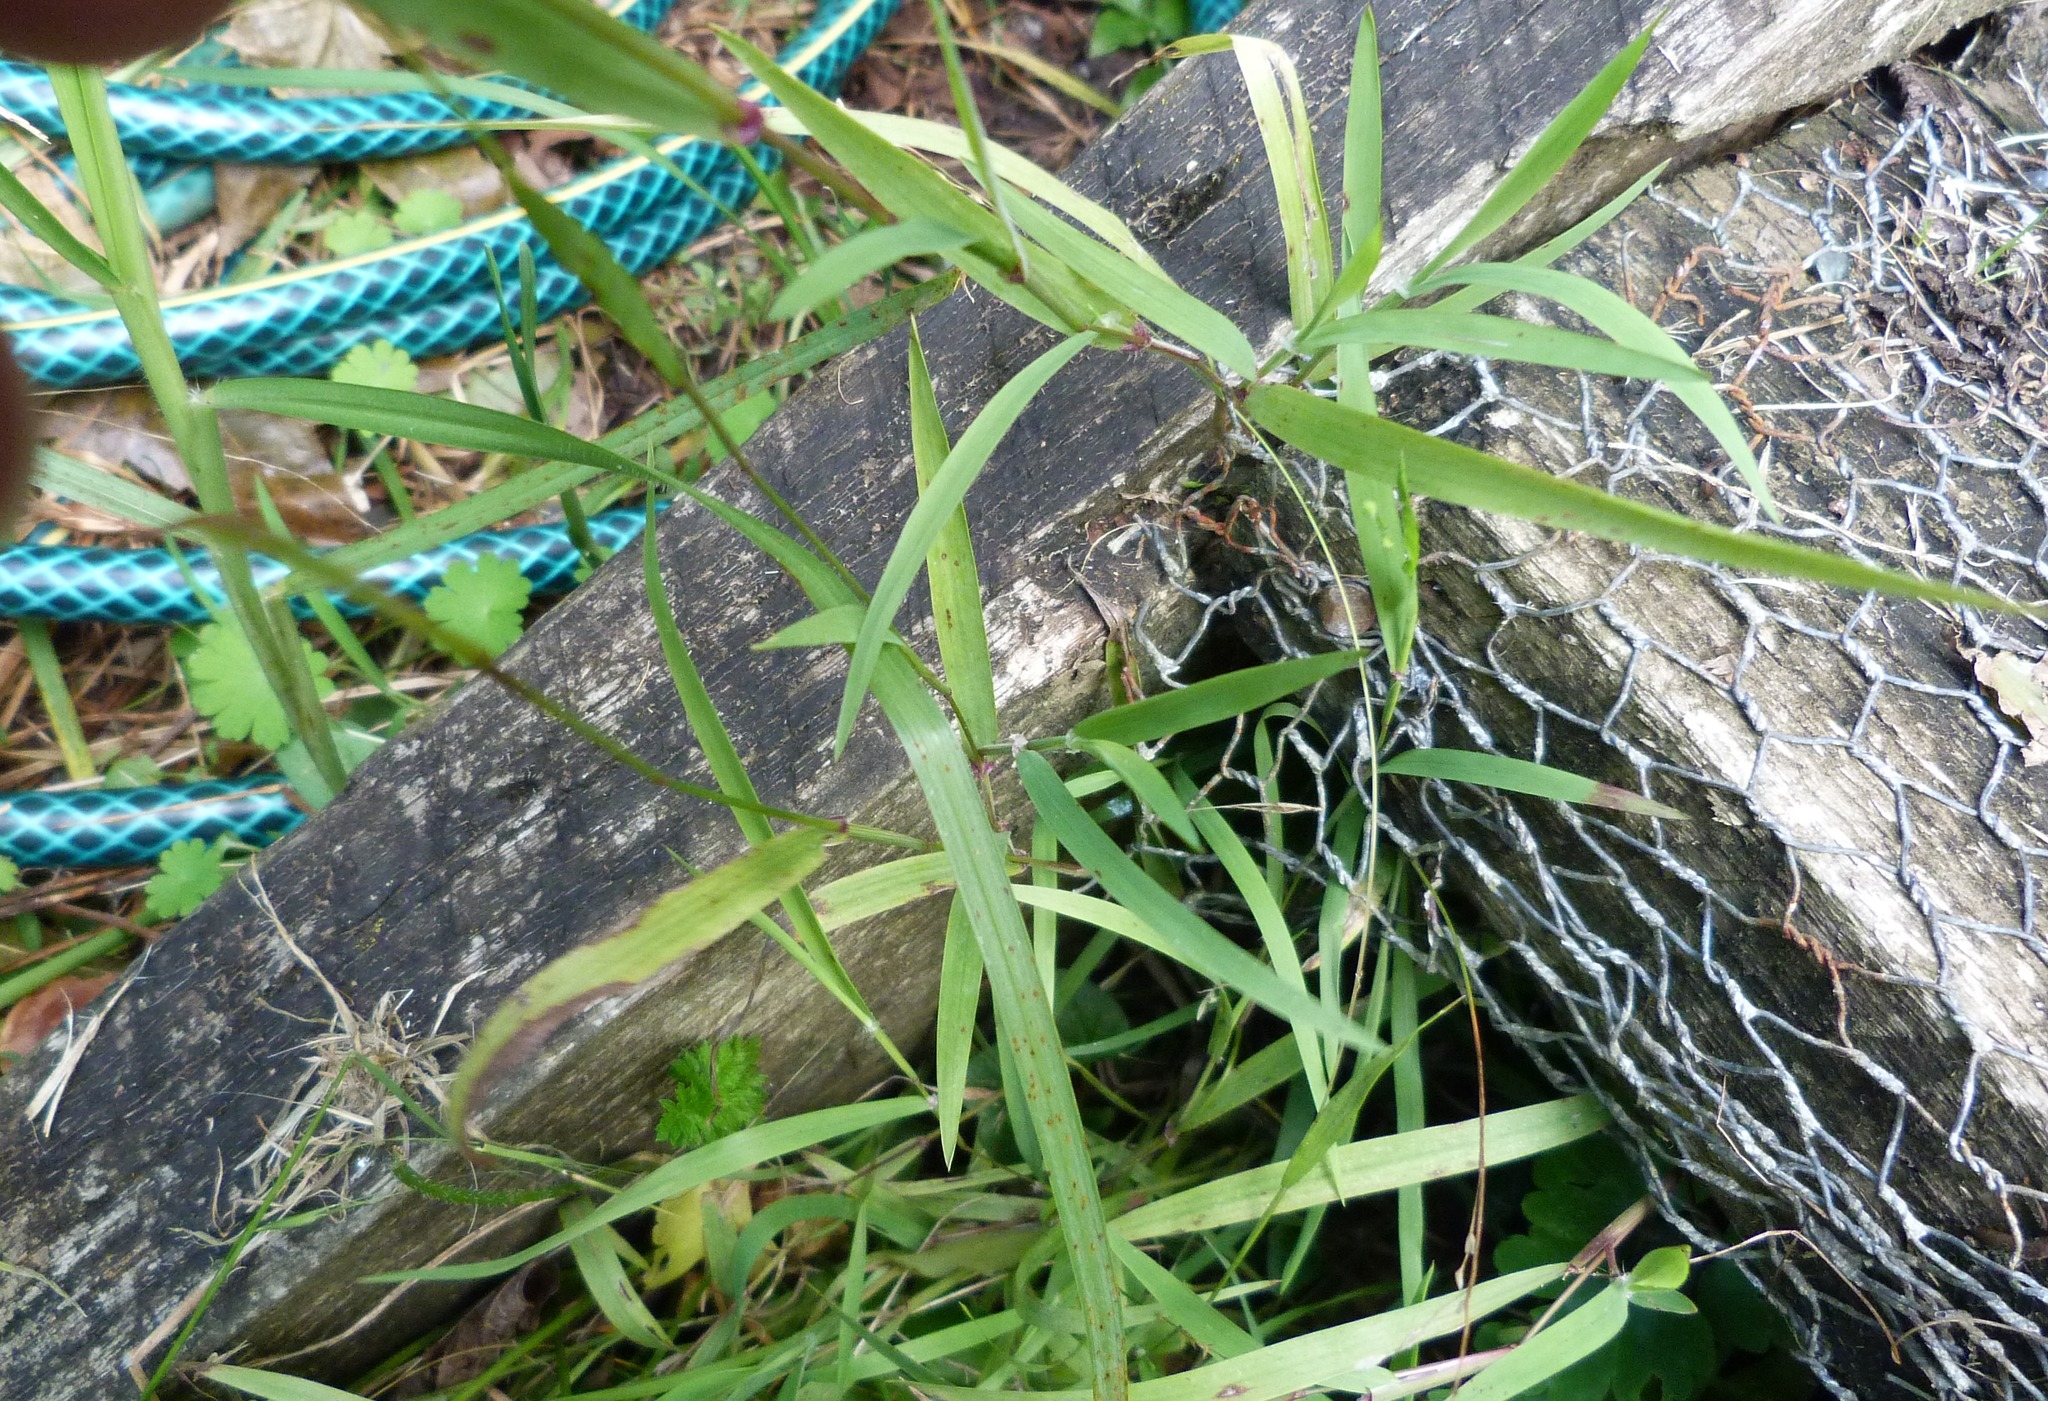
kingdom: Plantae
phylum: Tracheophyta
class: Liliopsida
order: Poales
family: Poaceae
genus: Ehrharta
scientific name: Ehrharta erecta
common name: Panic veldtgrass
